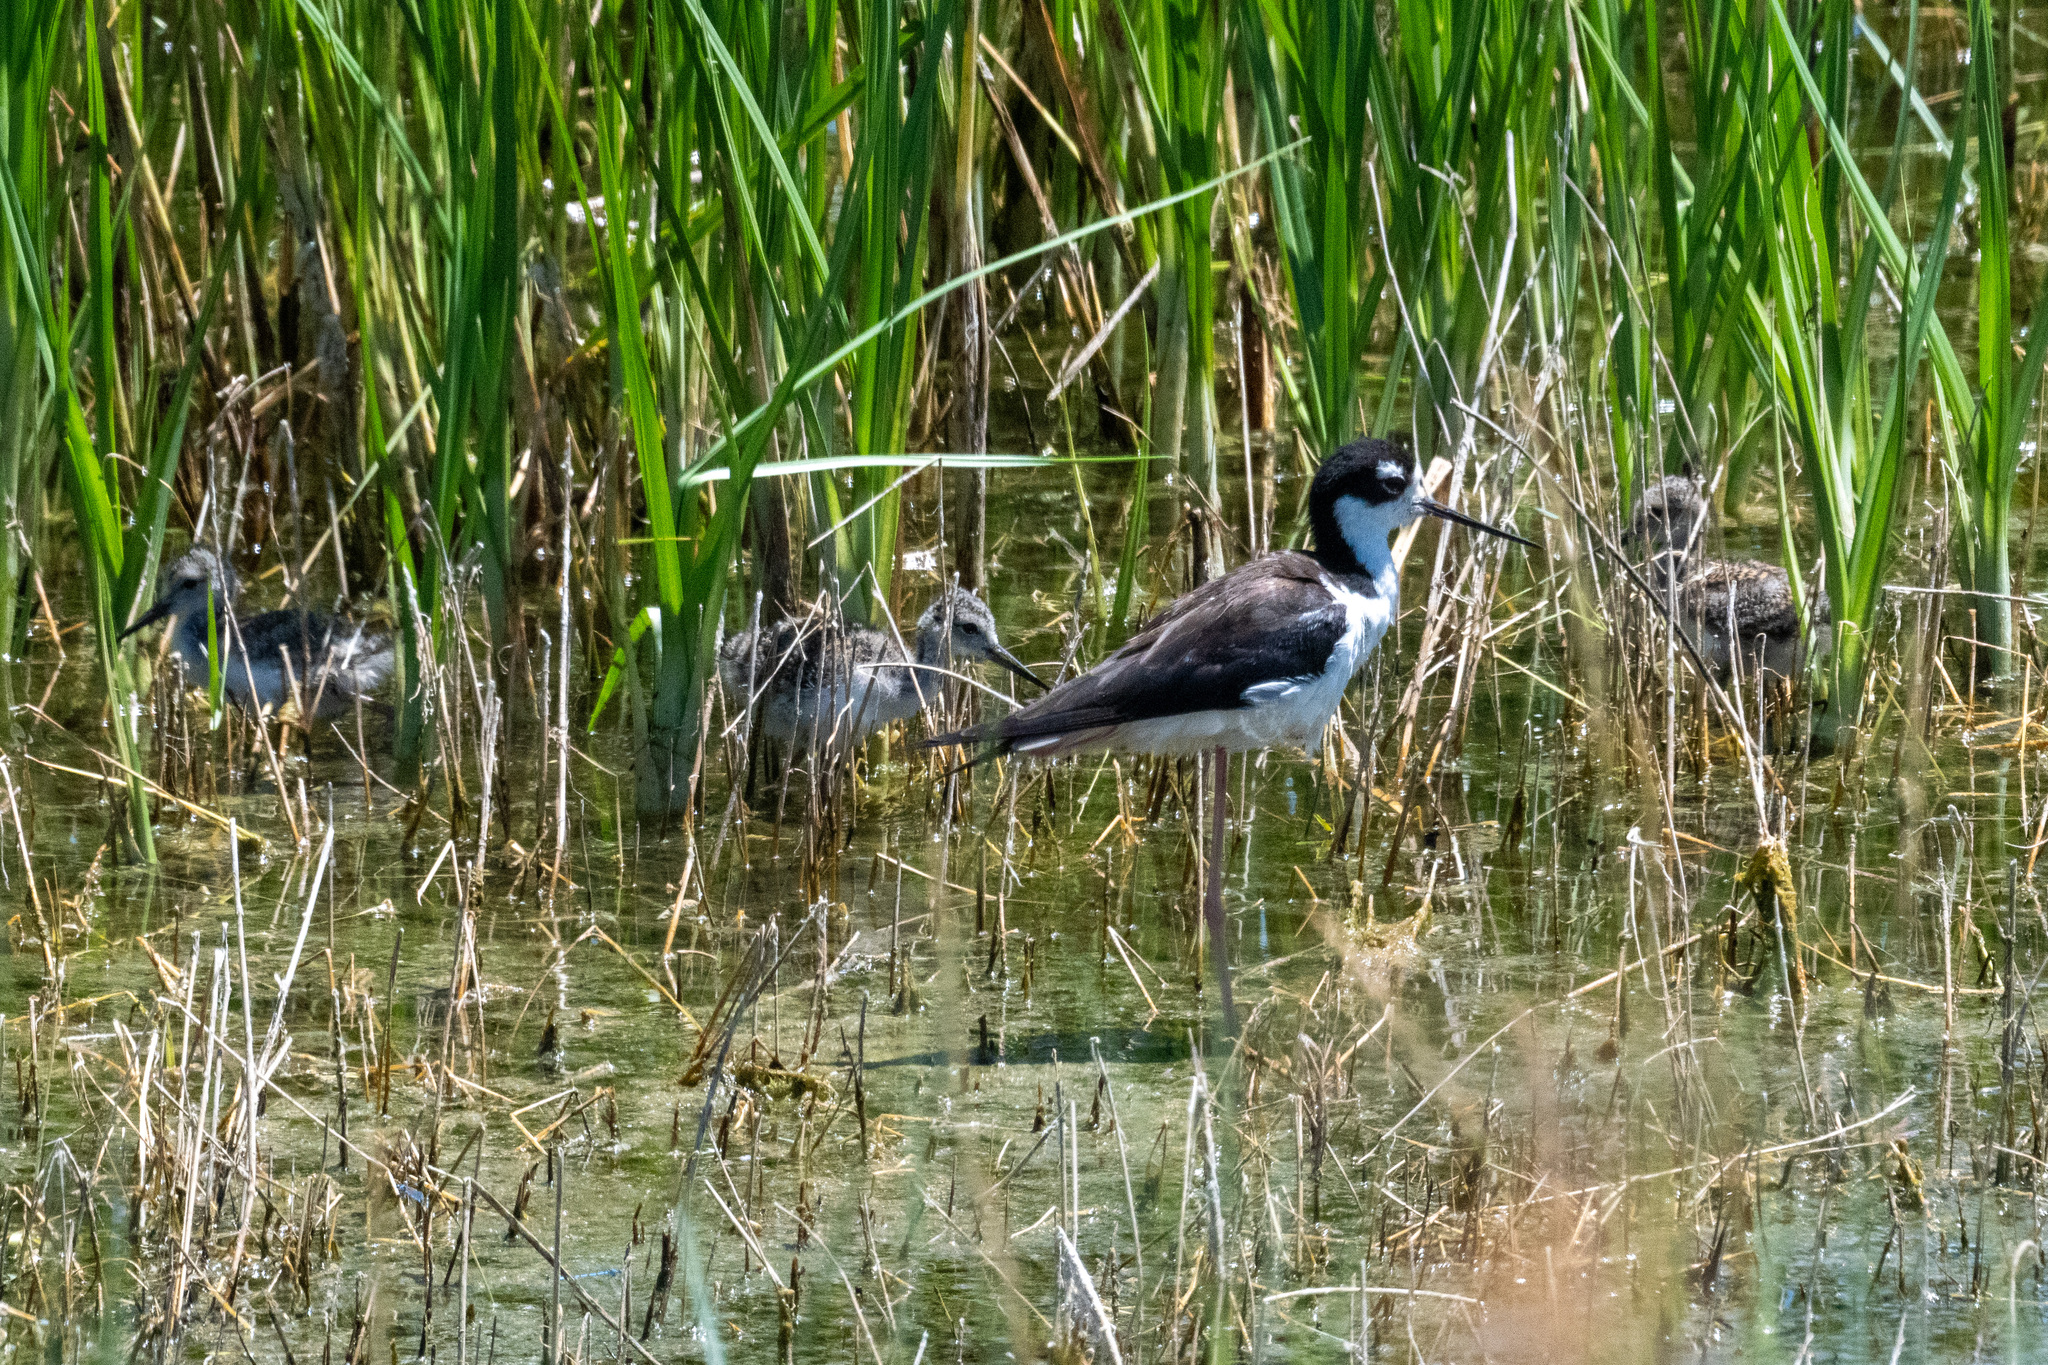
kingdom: Animalia
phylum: Chordata
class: Aves
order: Charadriiformes
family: Recurvirostridae
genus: Himantopus
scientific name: Himantopus mexicanus
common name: Black-necked stilt
